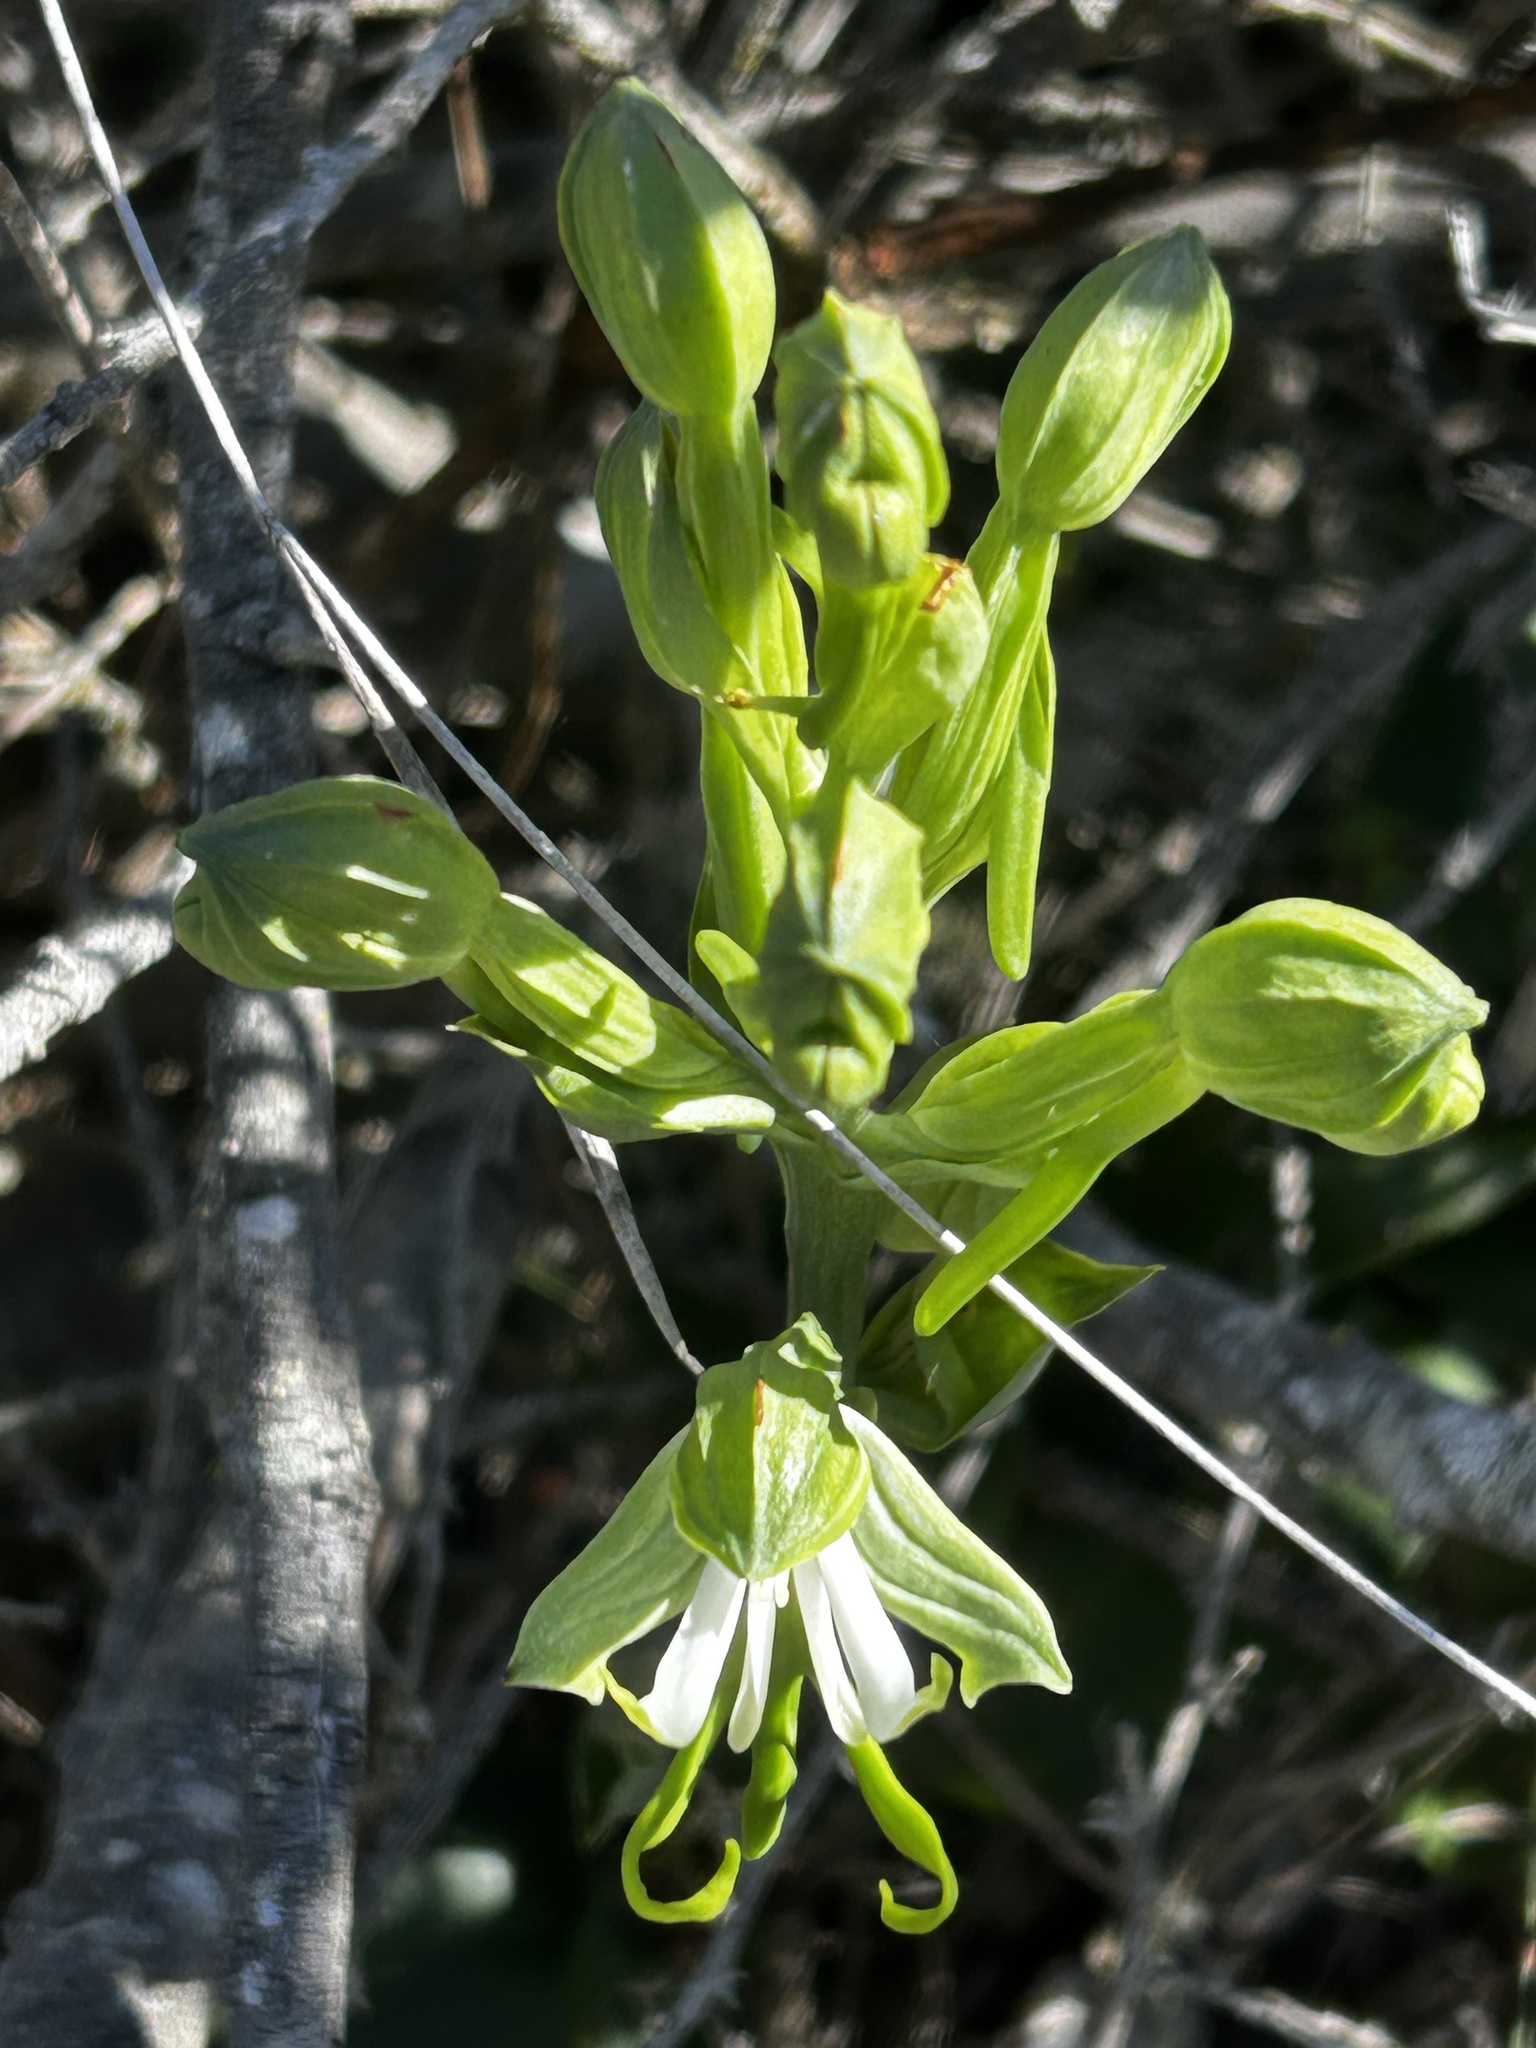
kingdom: Plantae
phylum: Tracheophyta
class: Liliopsida
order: Asparagales
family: Orchidaceae
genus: Bonatea
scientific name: Bonatea speciosa
